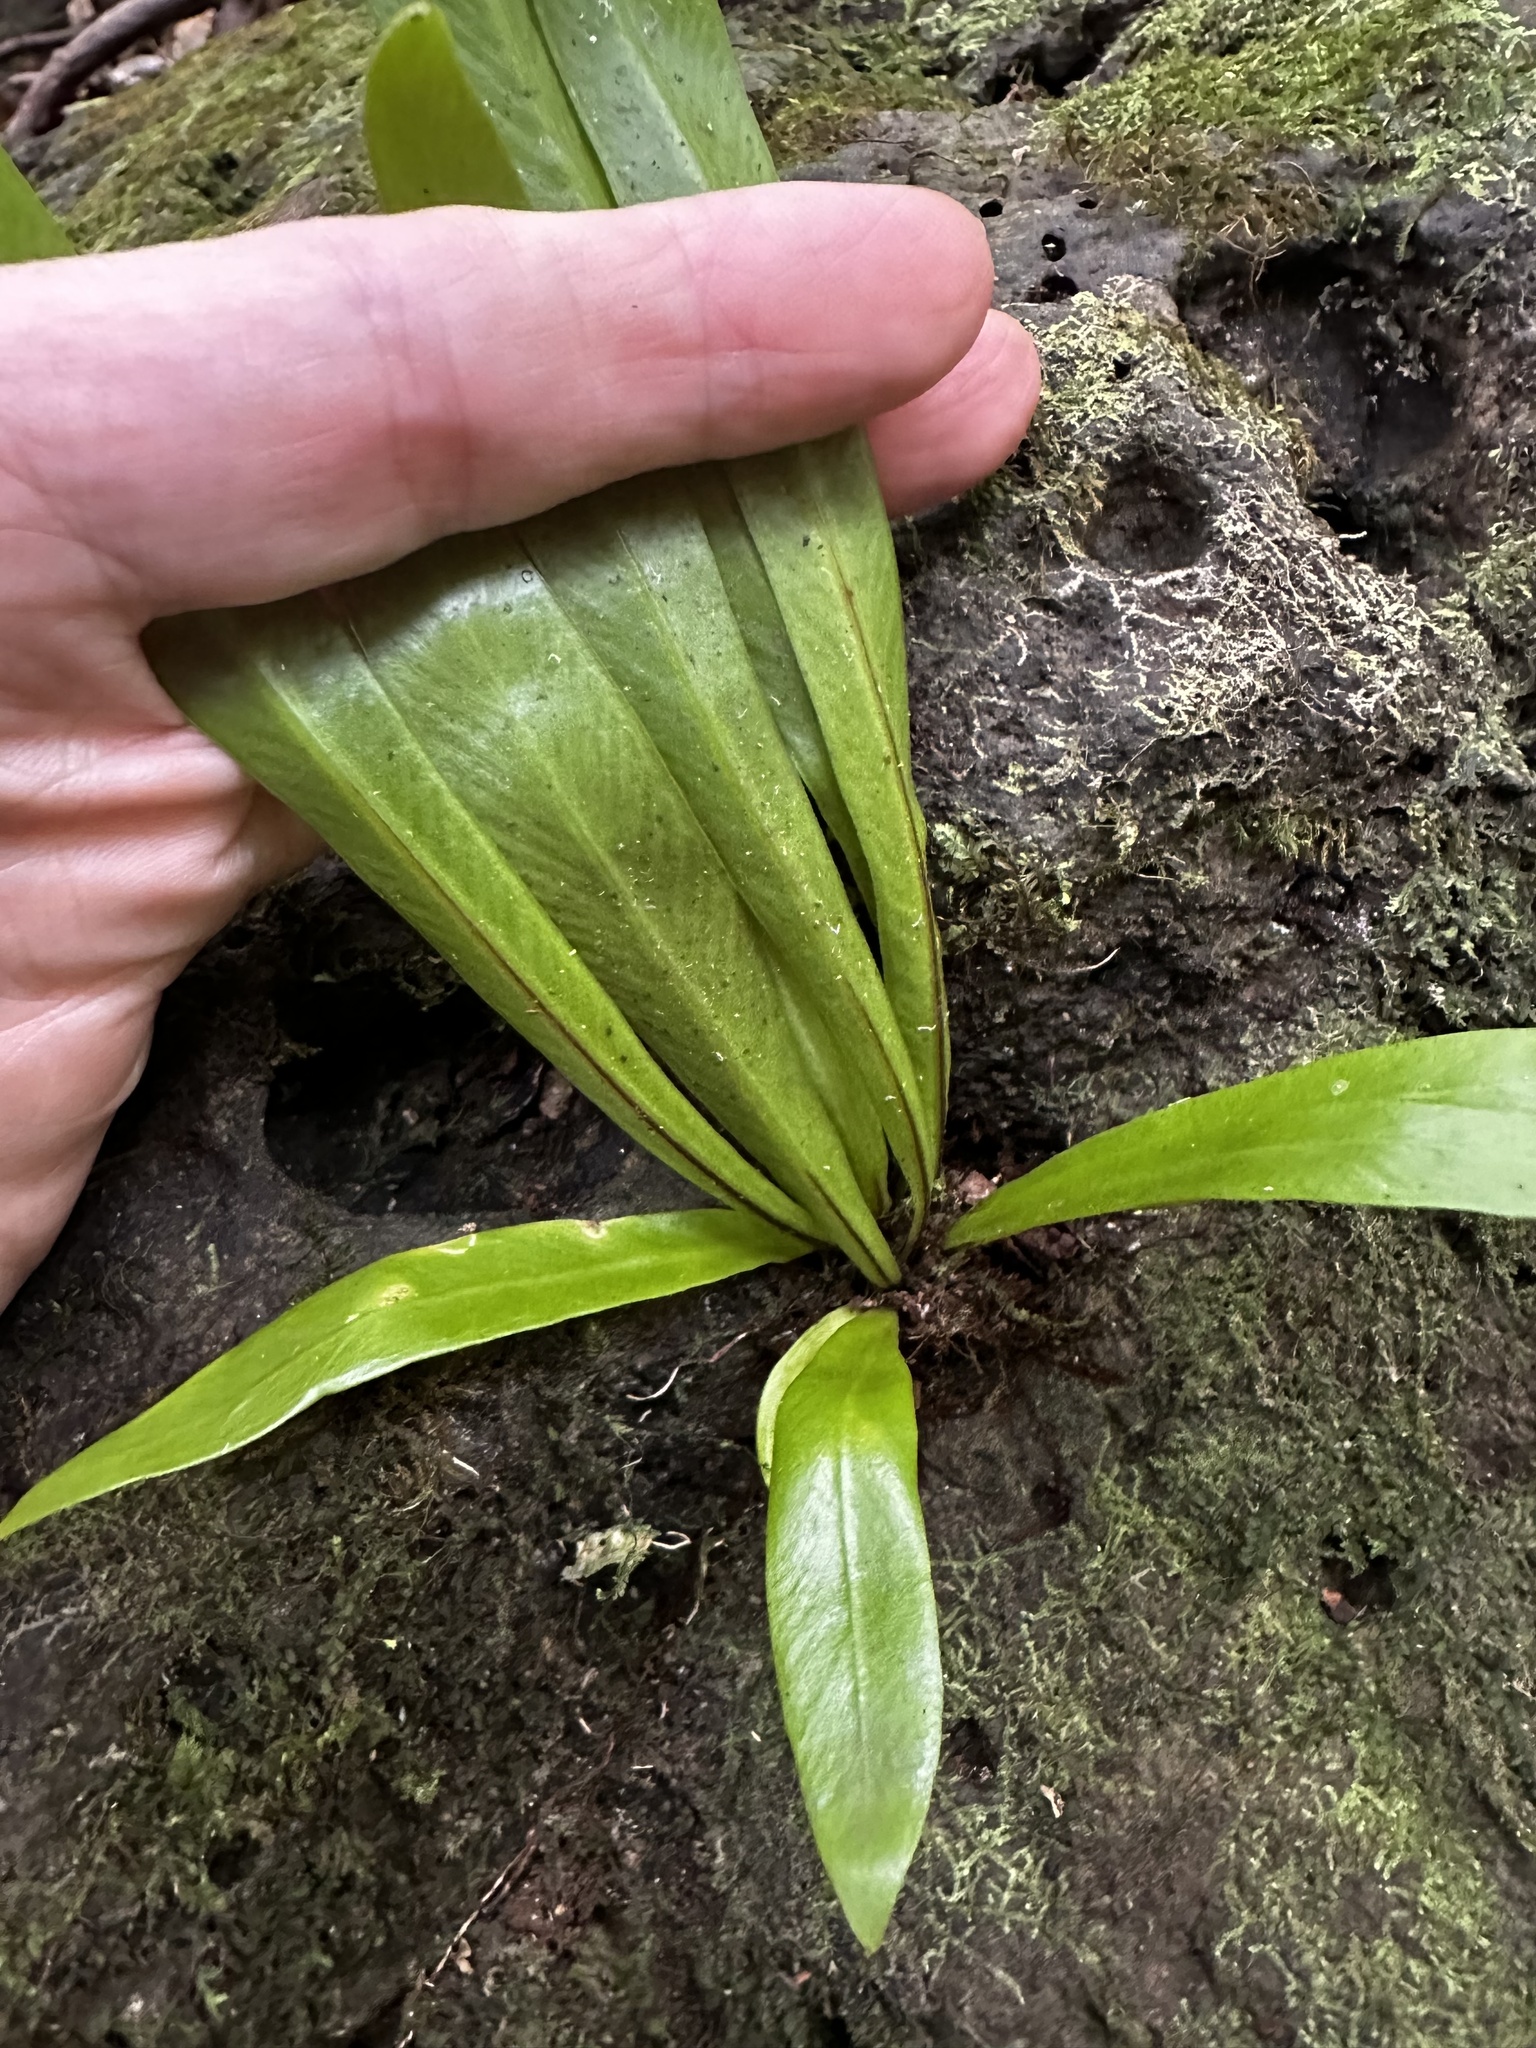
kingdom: Plantae
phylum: Tracheophyta
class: Polypodiopsida
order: Polypodiales
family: Aspleniaceae
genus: Asplenium
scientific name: Asplenium nidus
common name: Bird's-nest fern
